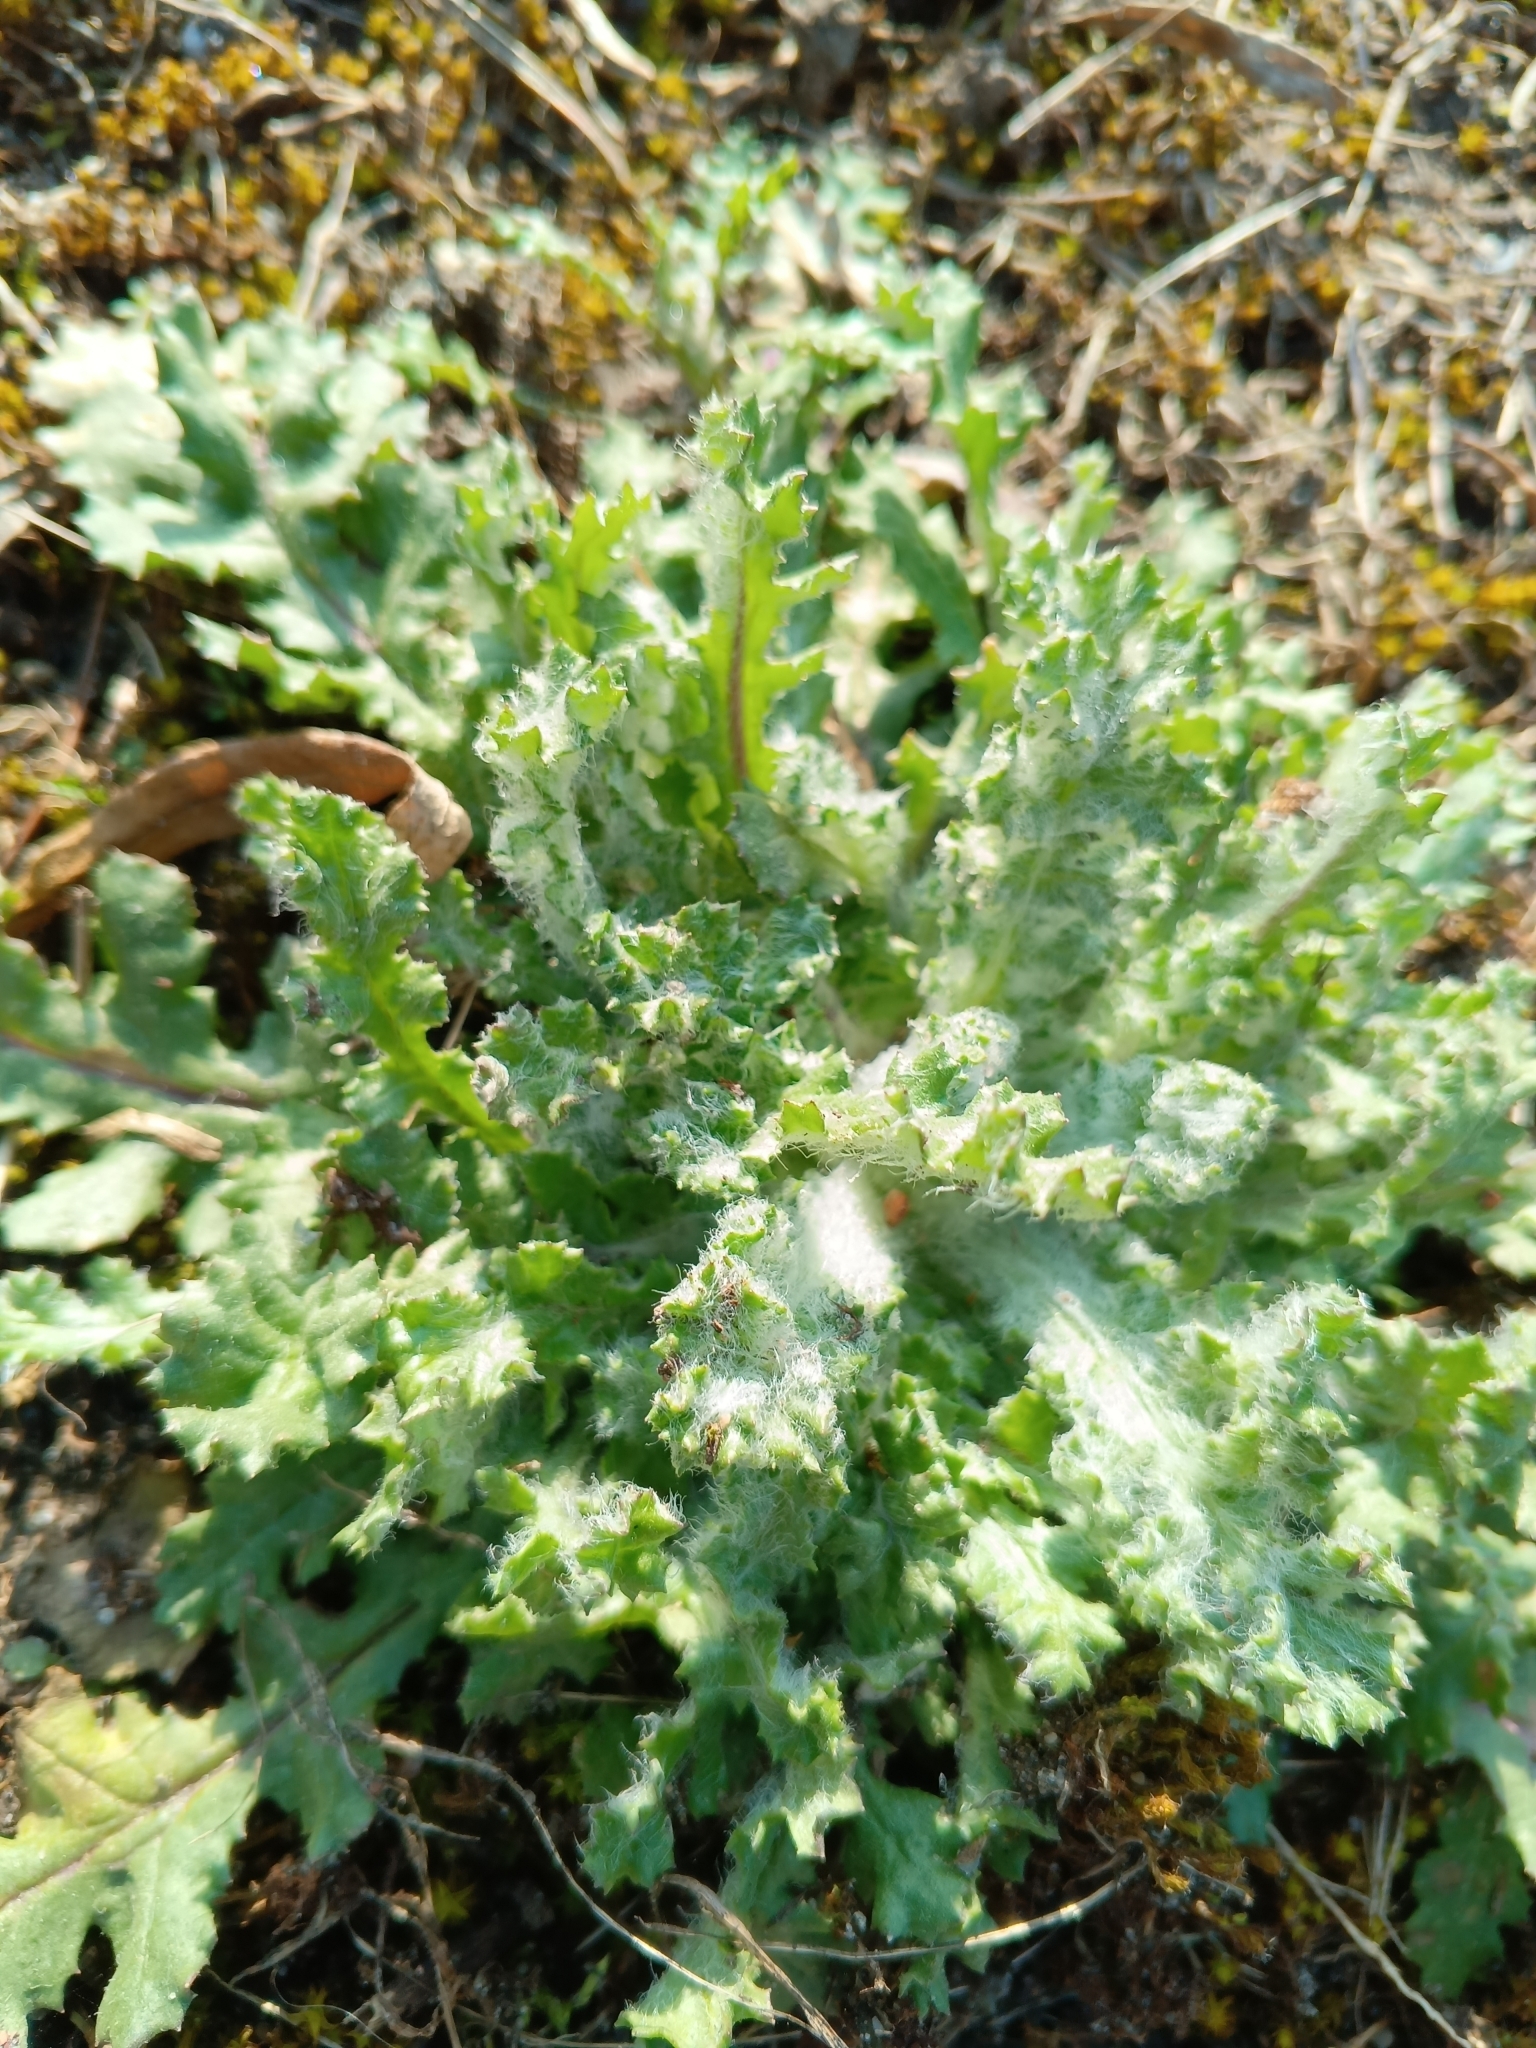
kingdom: Plantae
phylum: Tracheophyta
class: Magnoliopsida
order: Asterales
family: Asteraceae
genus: Senecio
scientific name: Senecio vernalis
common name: Eastern groundsel
